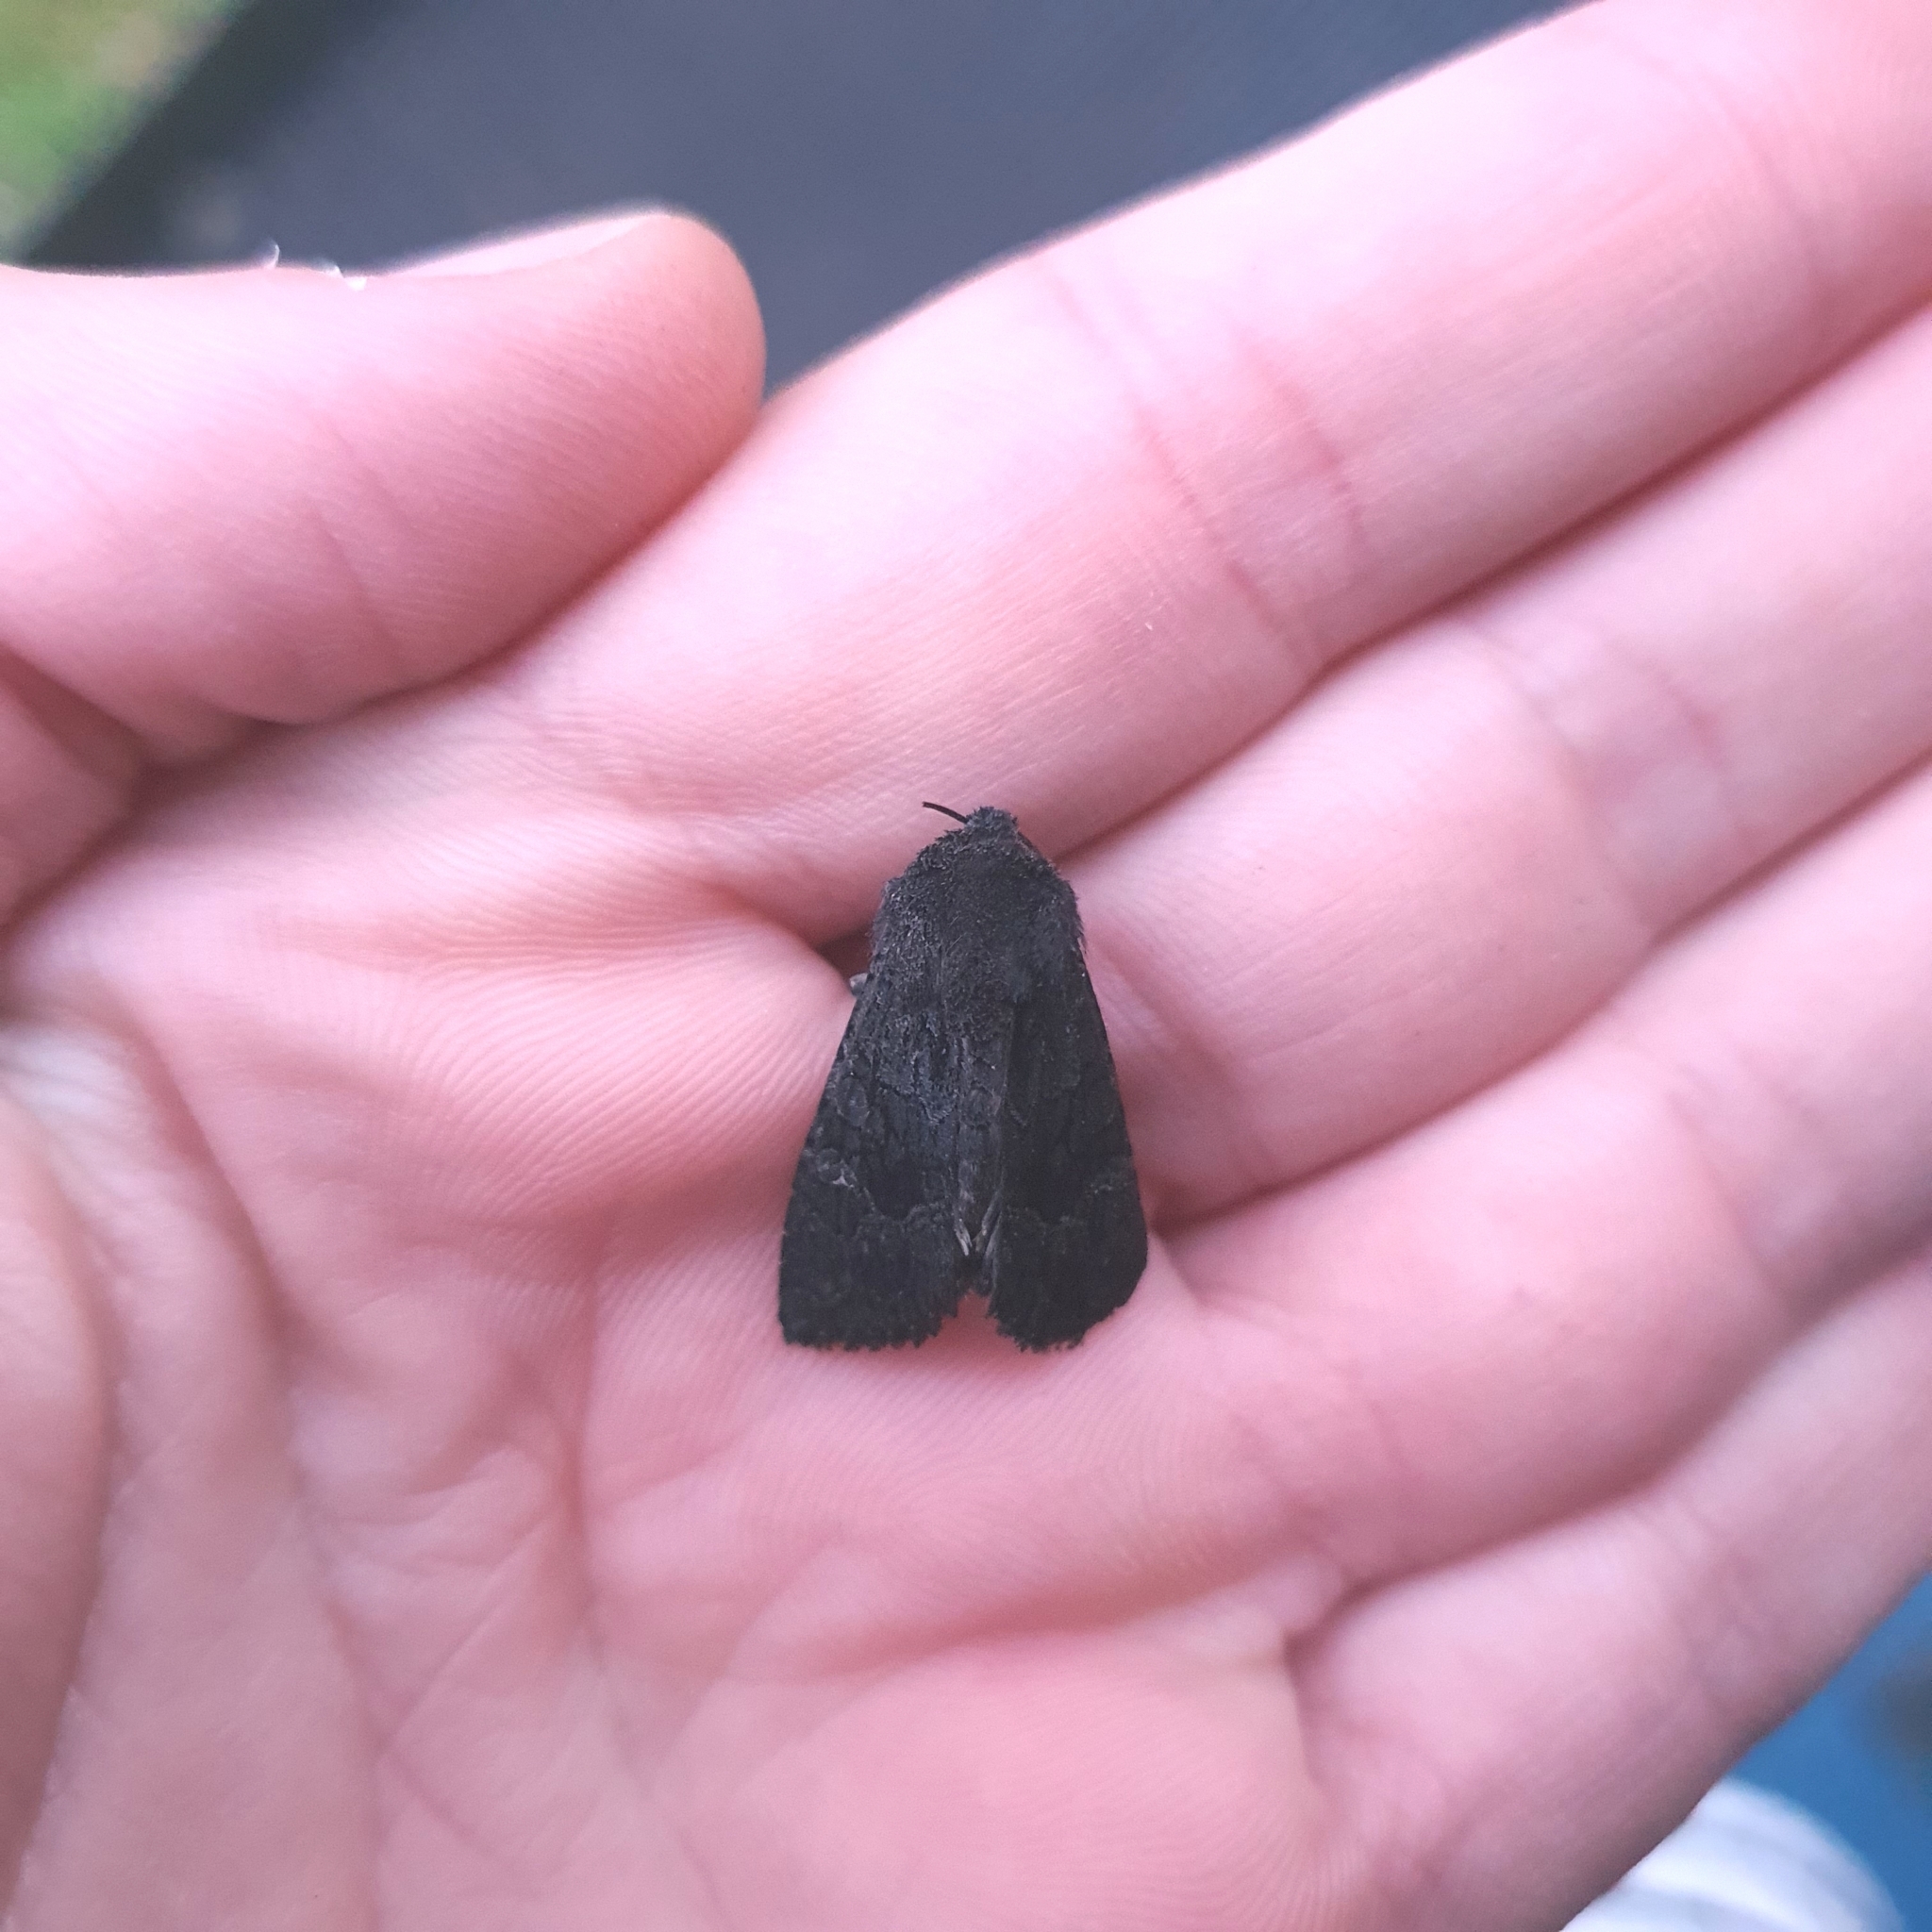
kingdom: Animalia
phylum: Arthropoda
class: Insecta
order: Lepidoptera
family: Noctuidae
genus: Neumichtis
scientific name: Neumichtis nigerrima
